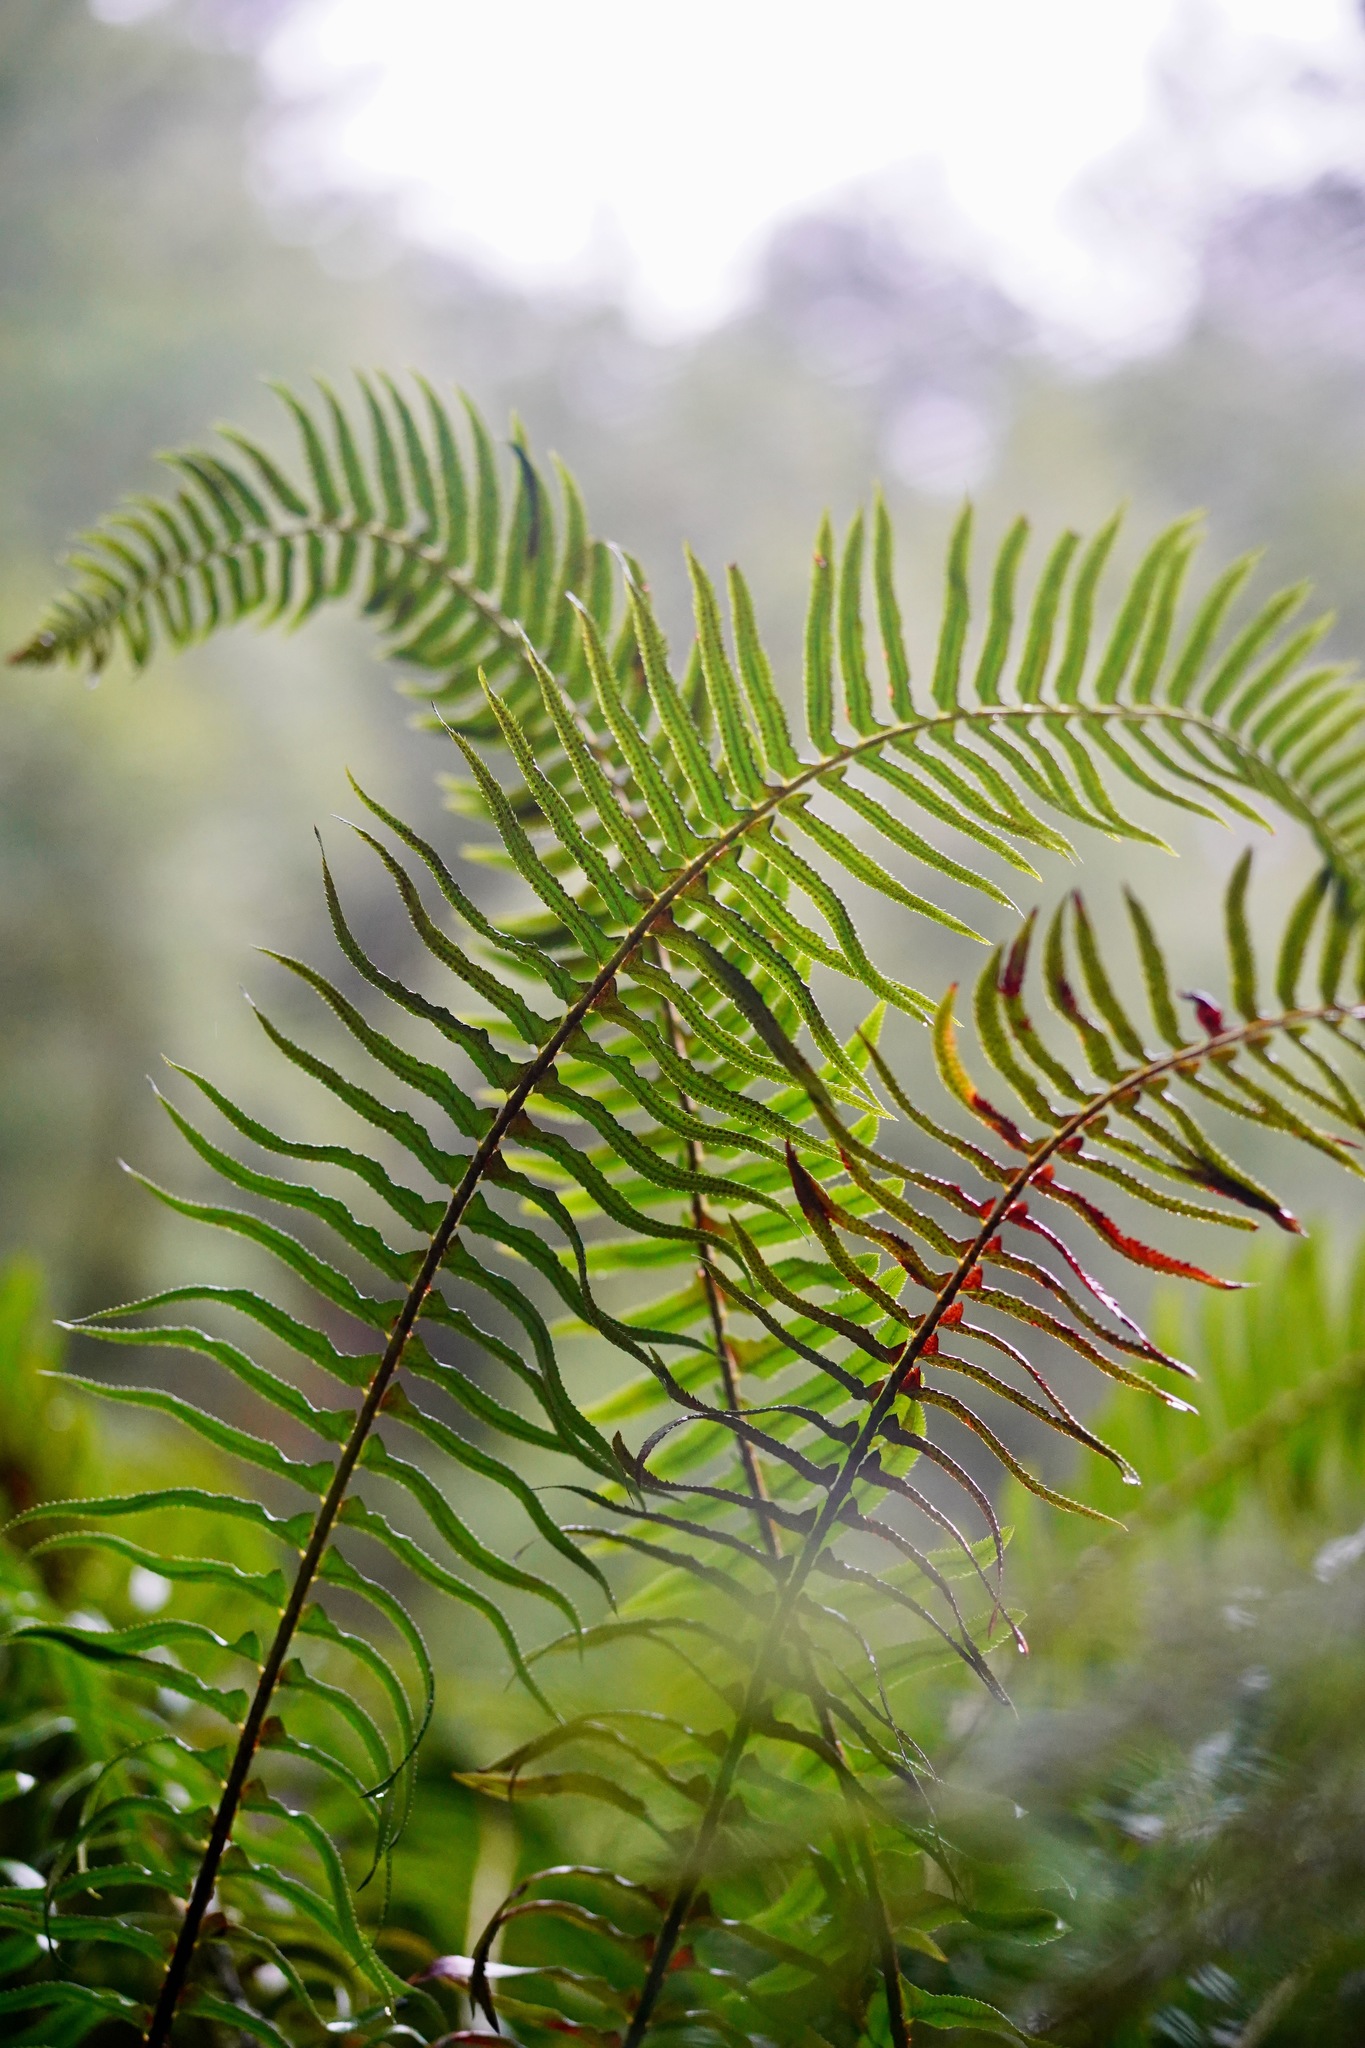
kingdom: Plantae
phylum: Tracheophyta
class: Polypodiopsida
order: Polypodiales
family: Dryopteridaceae
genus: Polystichum
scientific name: Polystichum munitum
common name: Western sword-fern
